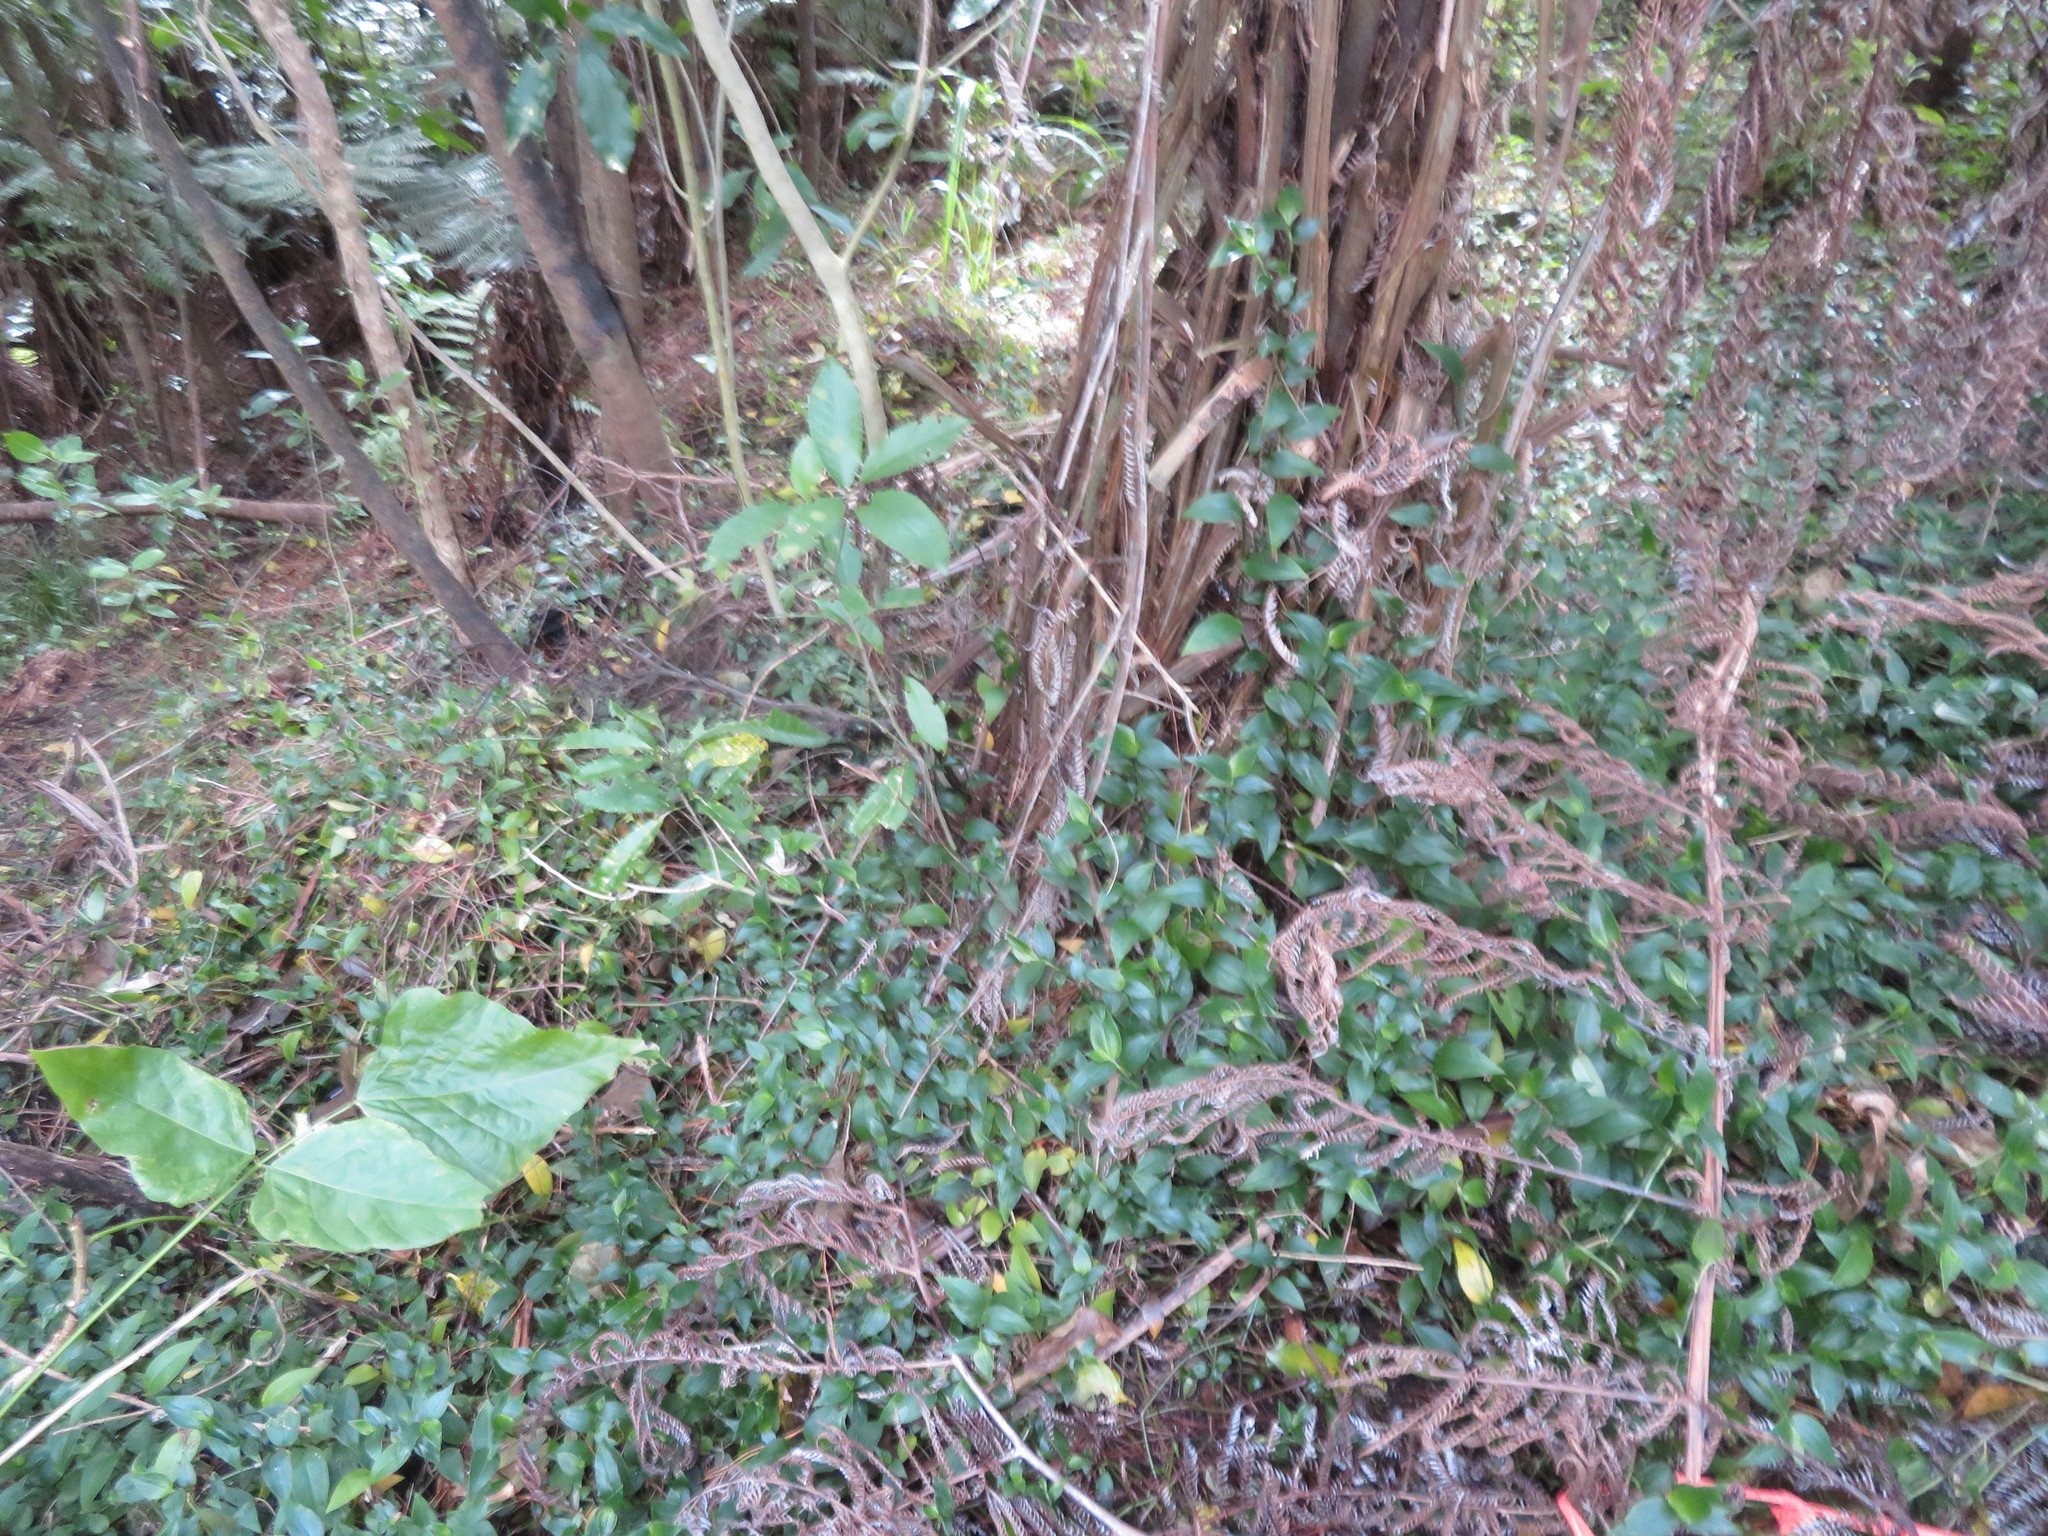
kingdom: Plantae
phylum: Tracheophyta
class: Liliopsida
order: Commelinales
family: Commelinaceae
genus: Tradescantia
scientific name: Tradescantia fluminensis
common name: Wandering-jew
